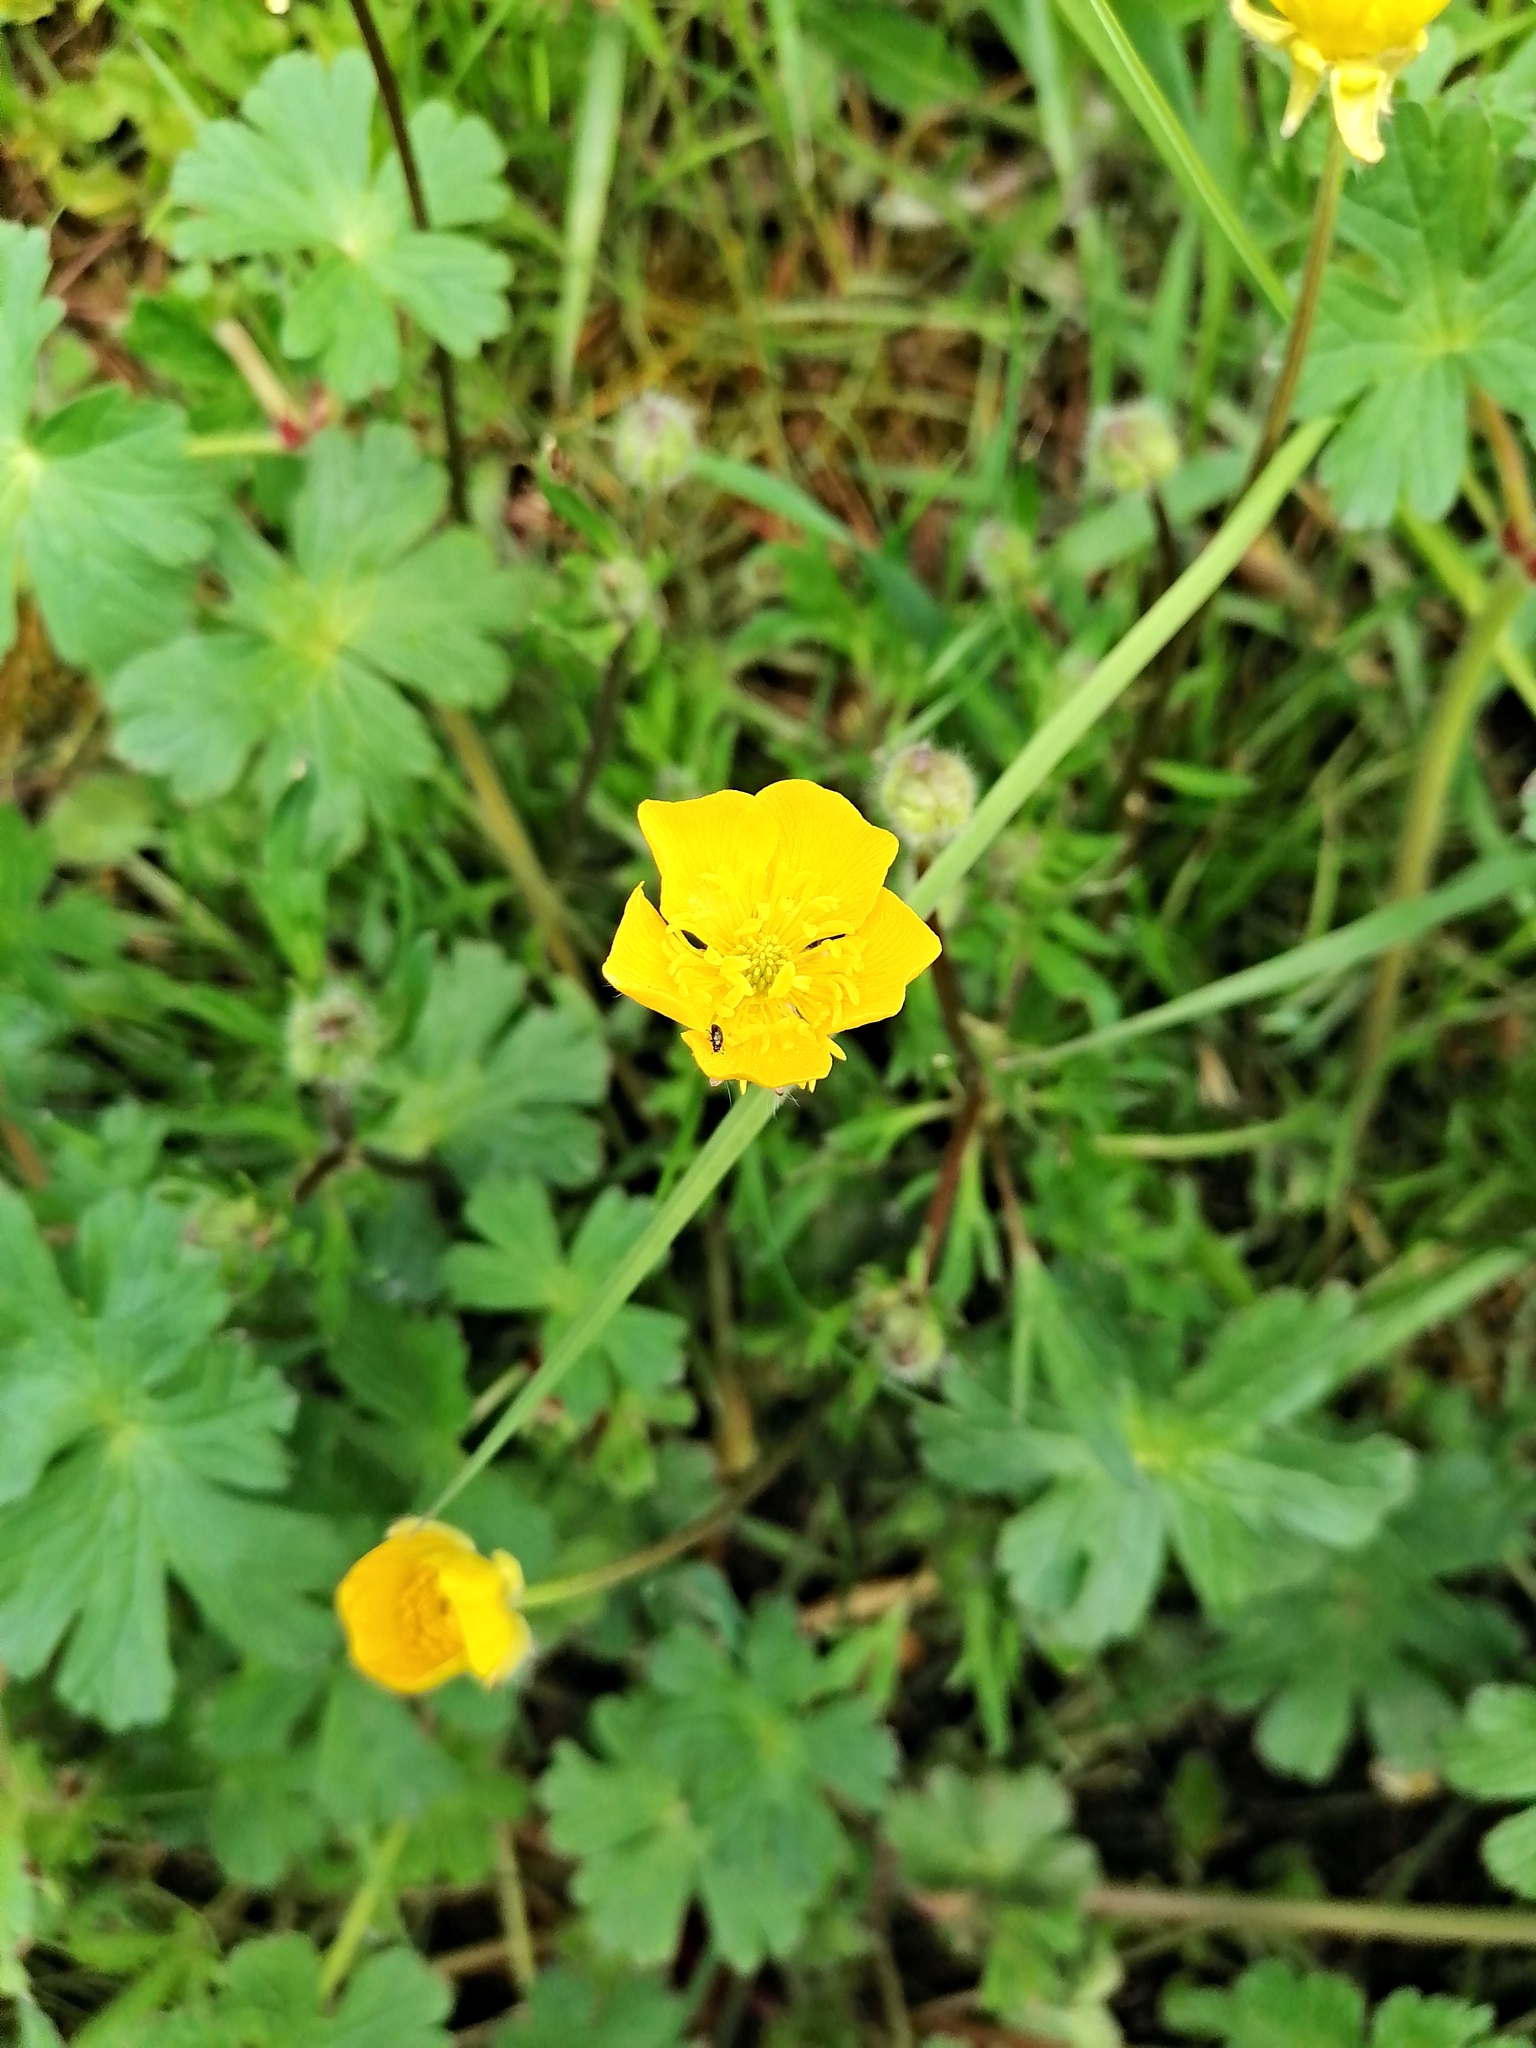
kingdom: Plantae
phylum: Tracheophyta
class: Magnoliopsida
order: Ranunculales
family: Ranunculaceae
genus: Ranunculus
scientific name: Ranunculus bulbosus
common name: Bulbous buttercup
